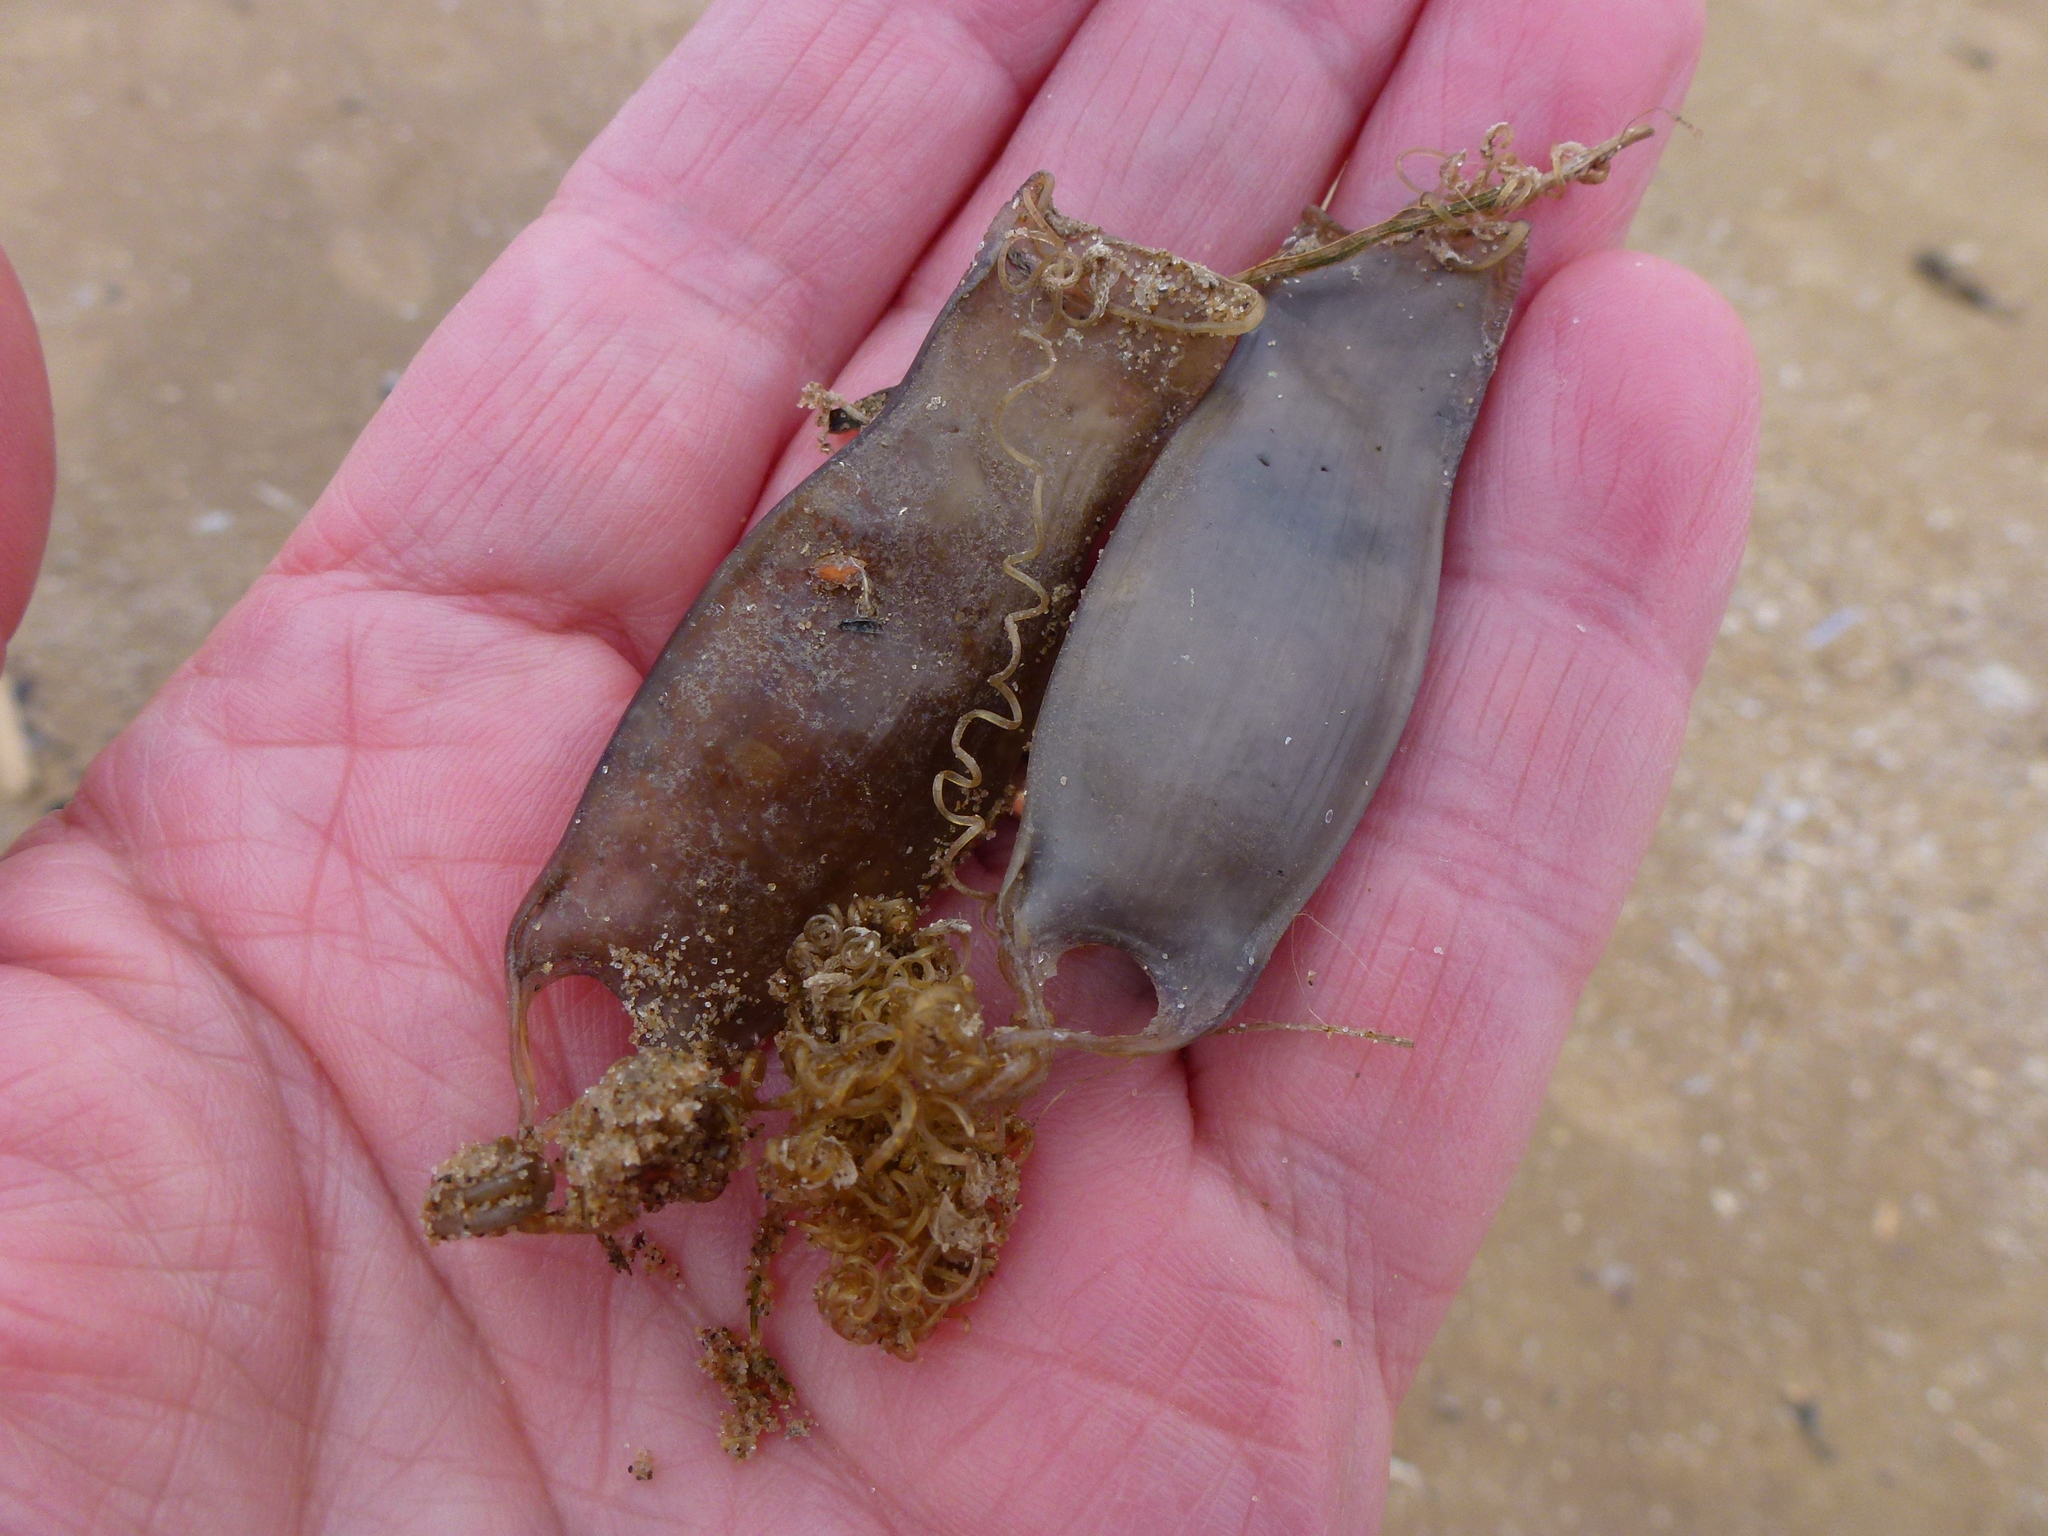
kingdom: Animalia
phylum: Chordata
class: Elasmobranchii
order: Carcharhiniformes
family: Scyliorhinidae
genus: Scyliorhinus
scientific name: Scyliorhinus canicula
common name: Lesser spotted dogfish
